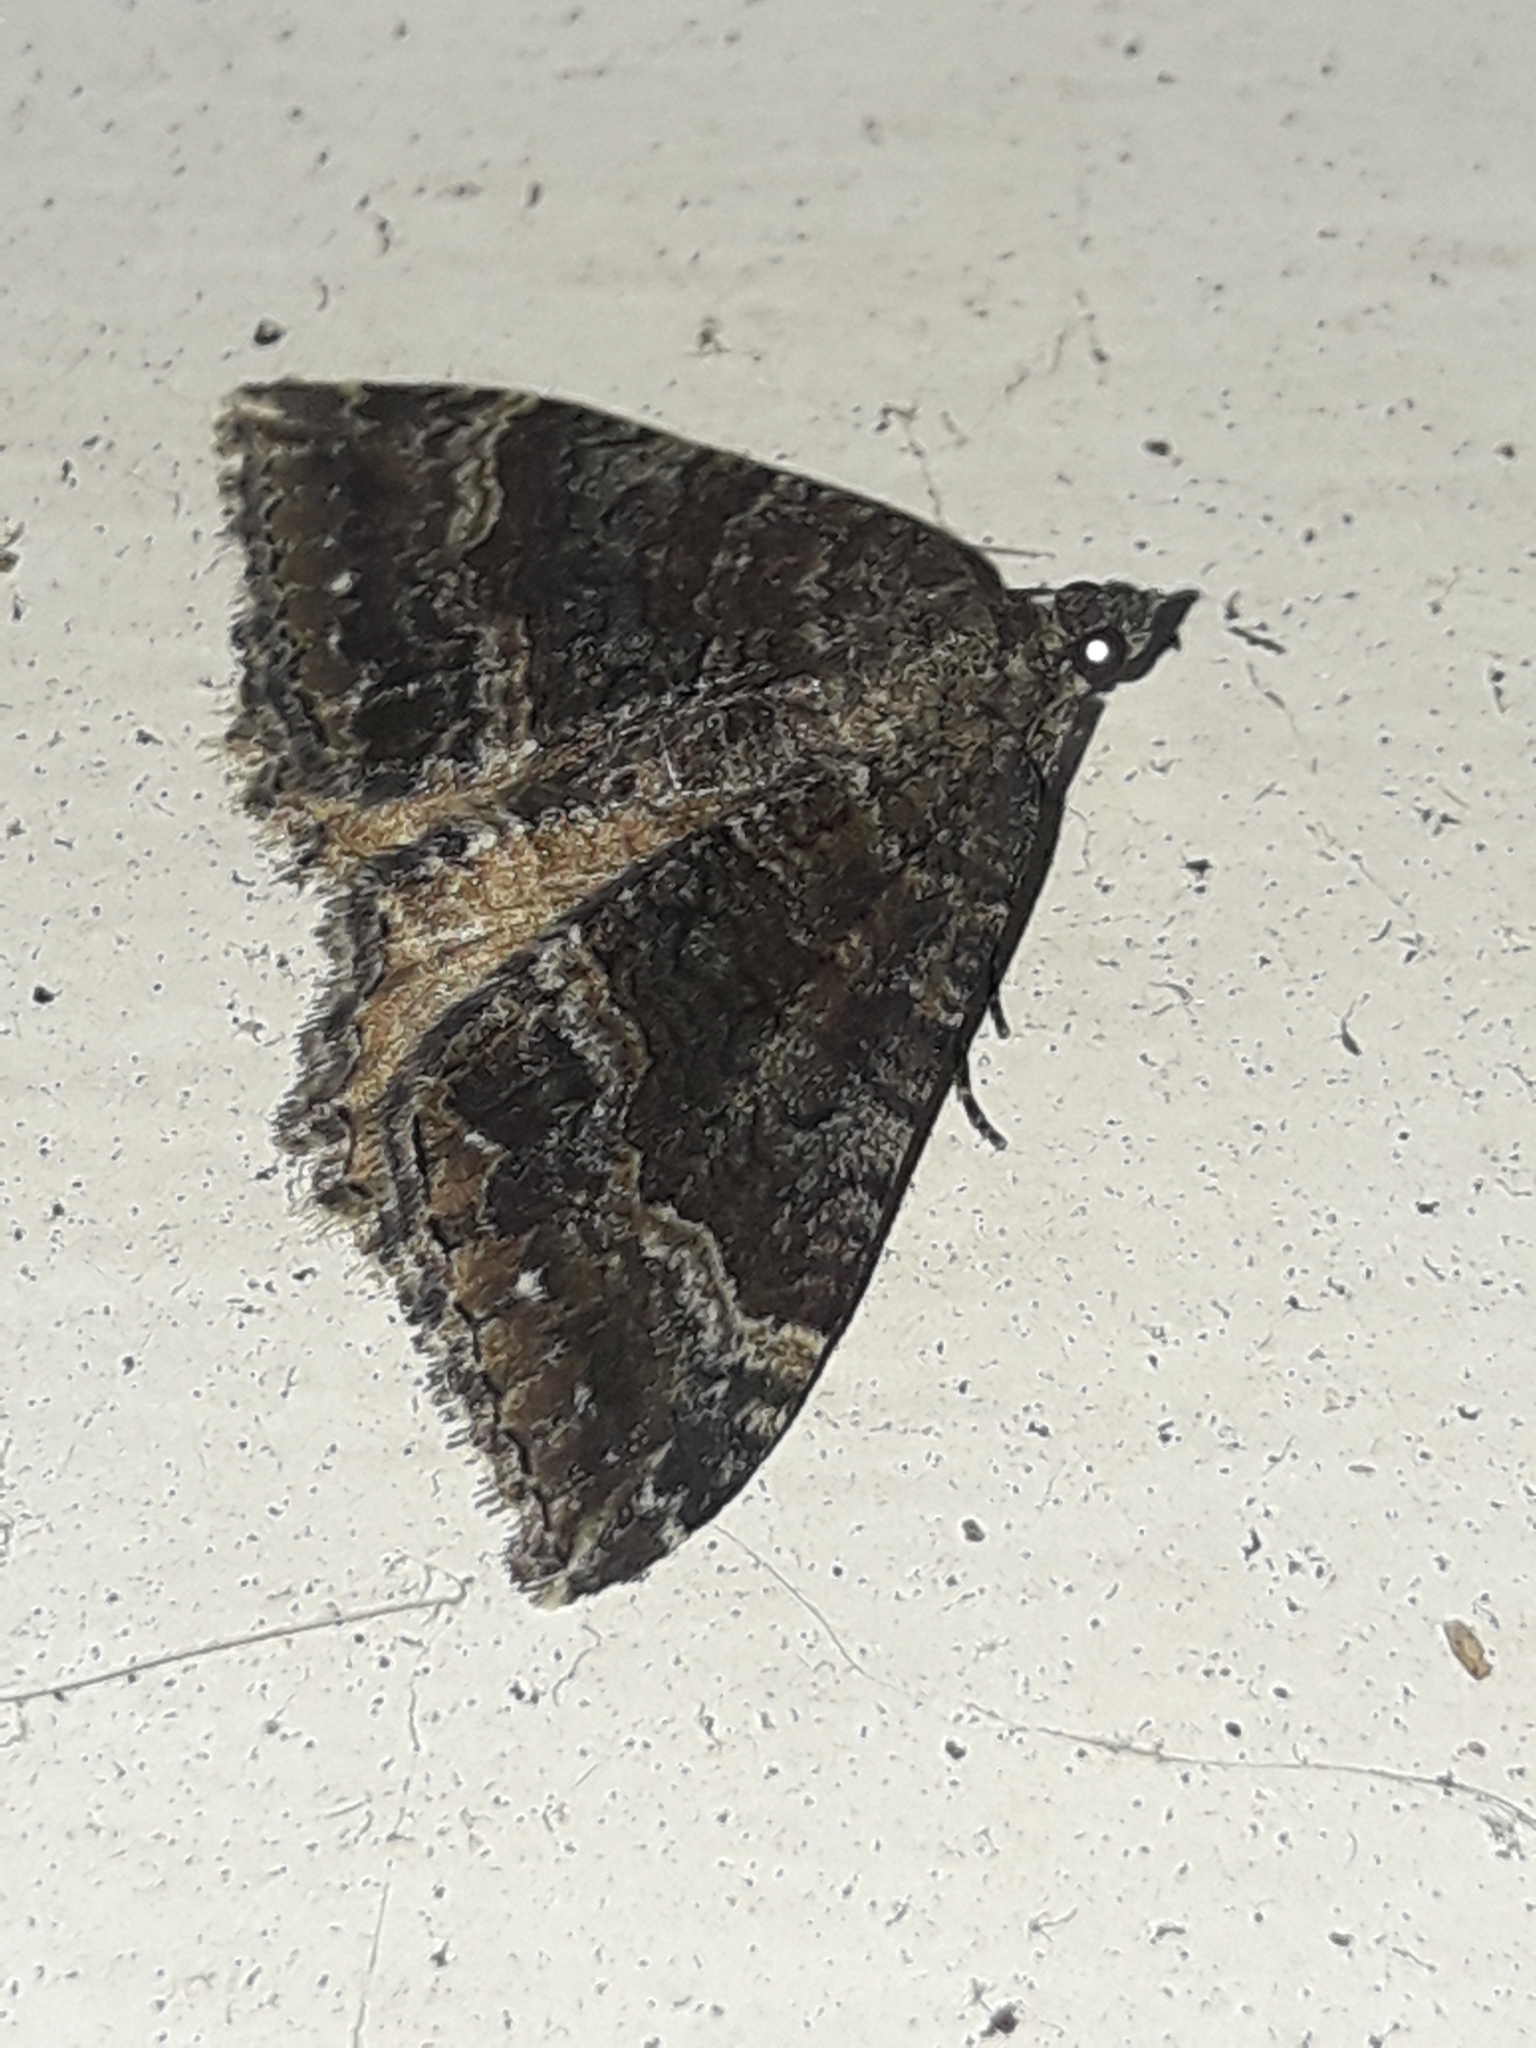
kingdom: Animalia
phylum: Arthropoda
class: Insecta
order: Lepidoptera
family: Geometridae
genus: Hydriomena
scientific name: Hydriomena deltoidata
